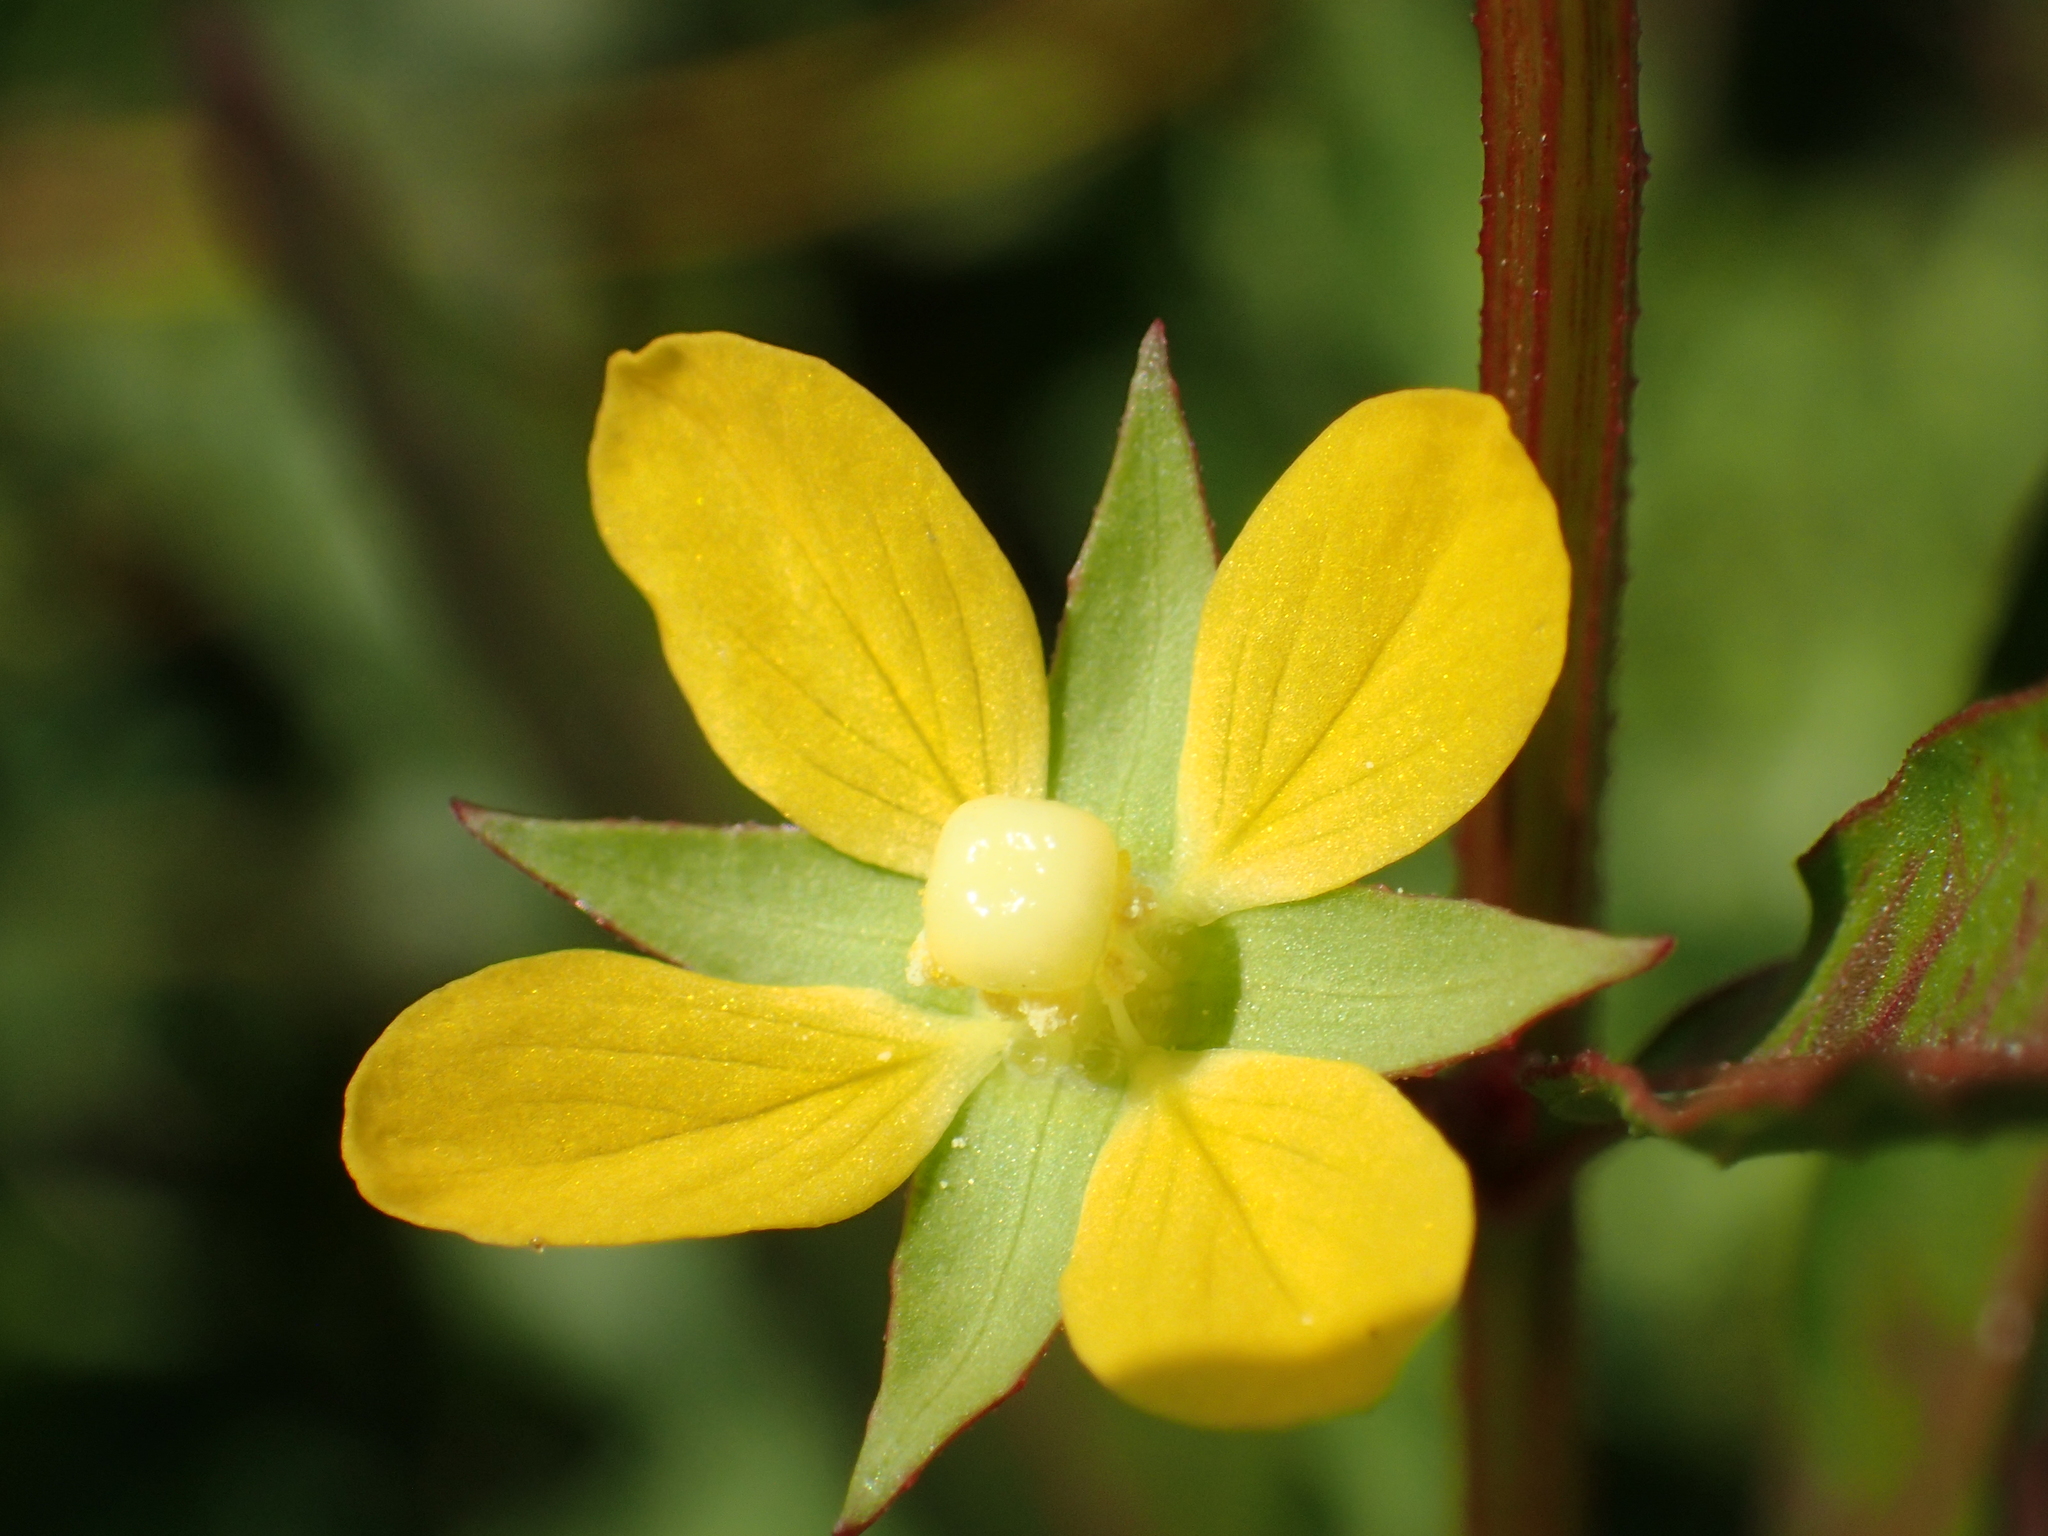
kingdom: Plantae
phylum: Tracheophyta
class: Magnoliopsida
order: Myrtales
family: Onagraceae
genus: Ludwigia
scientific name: Ludwigia hyssopifolia
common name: Linear leaf water primrose
